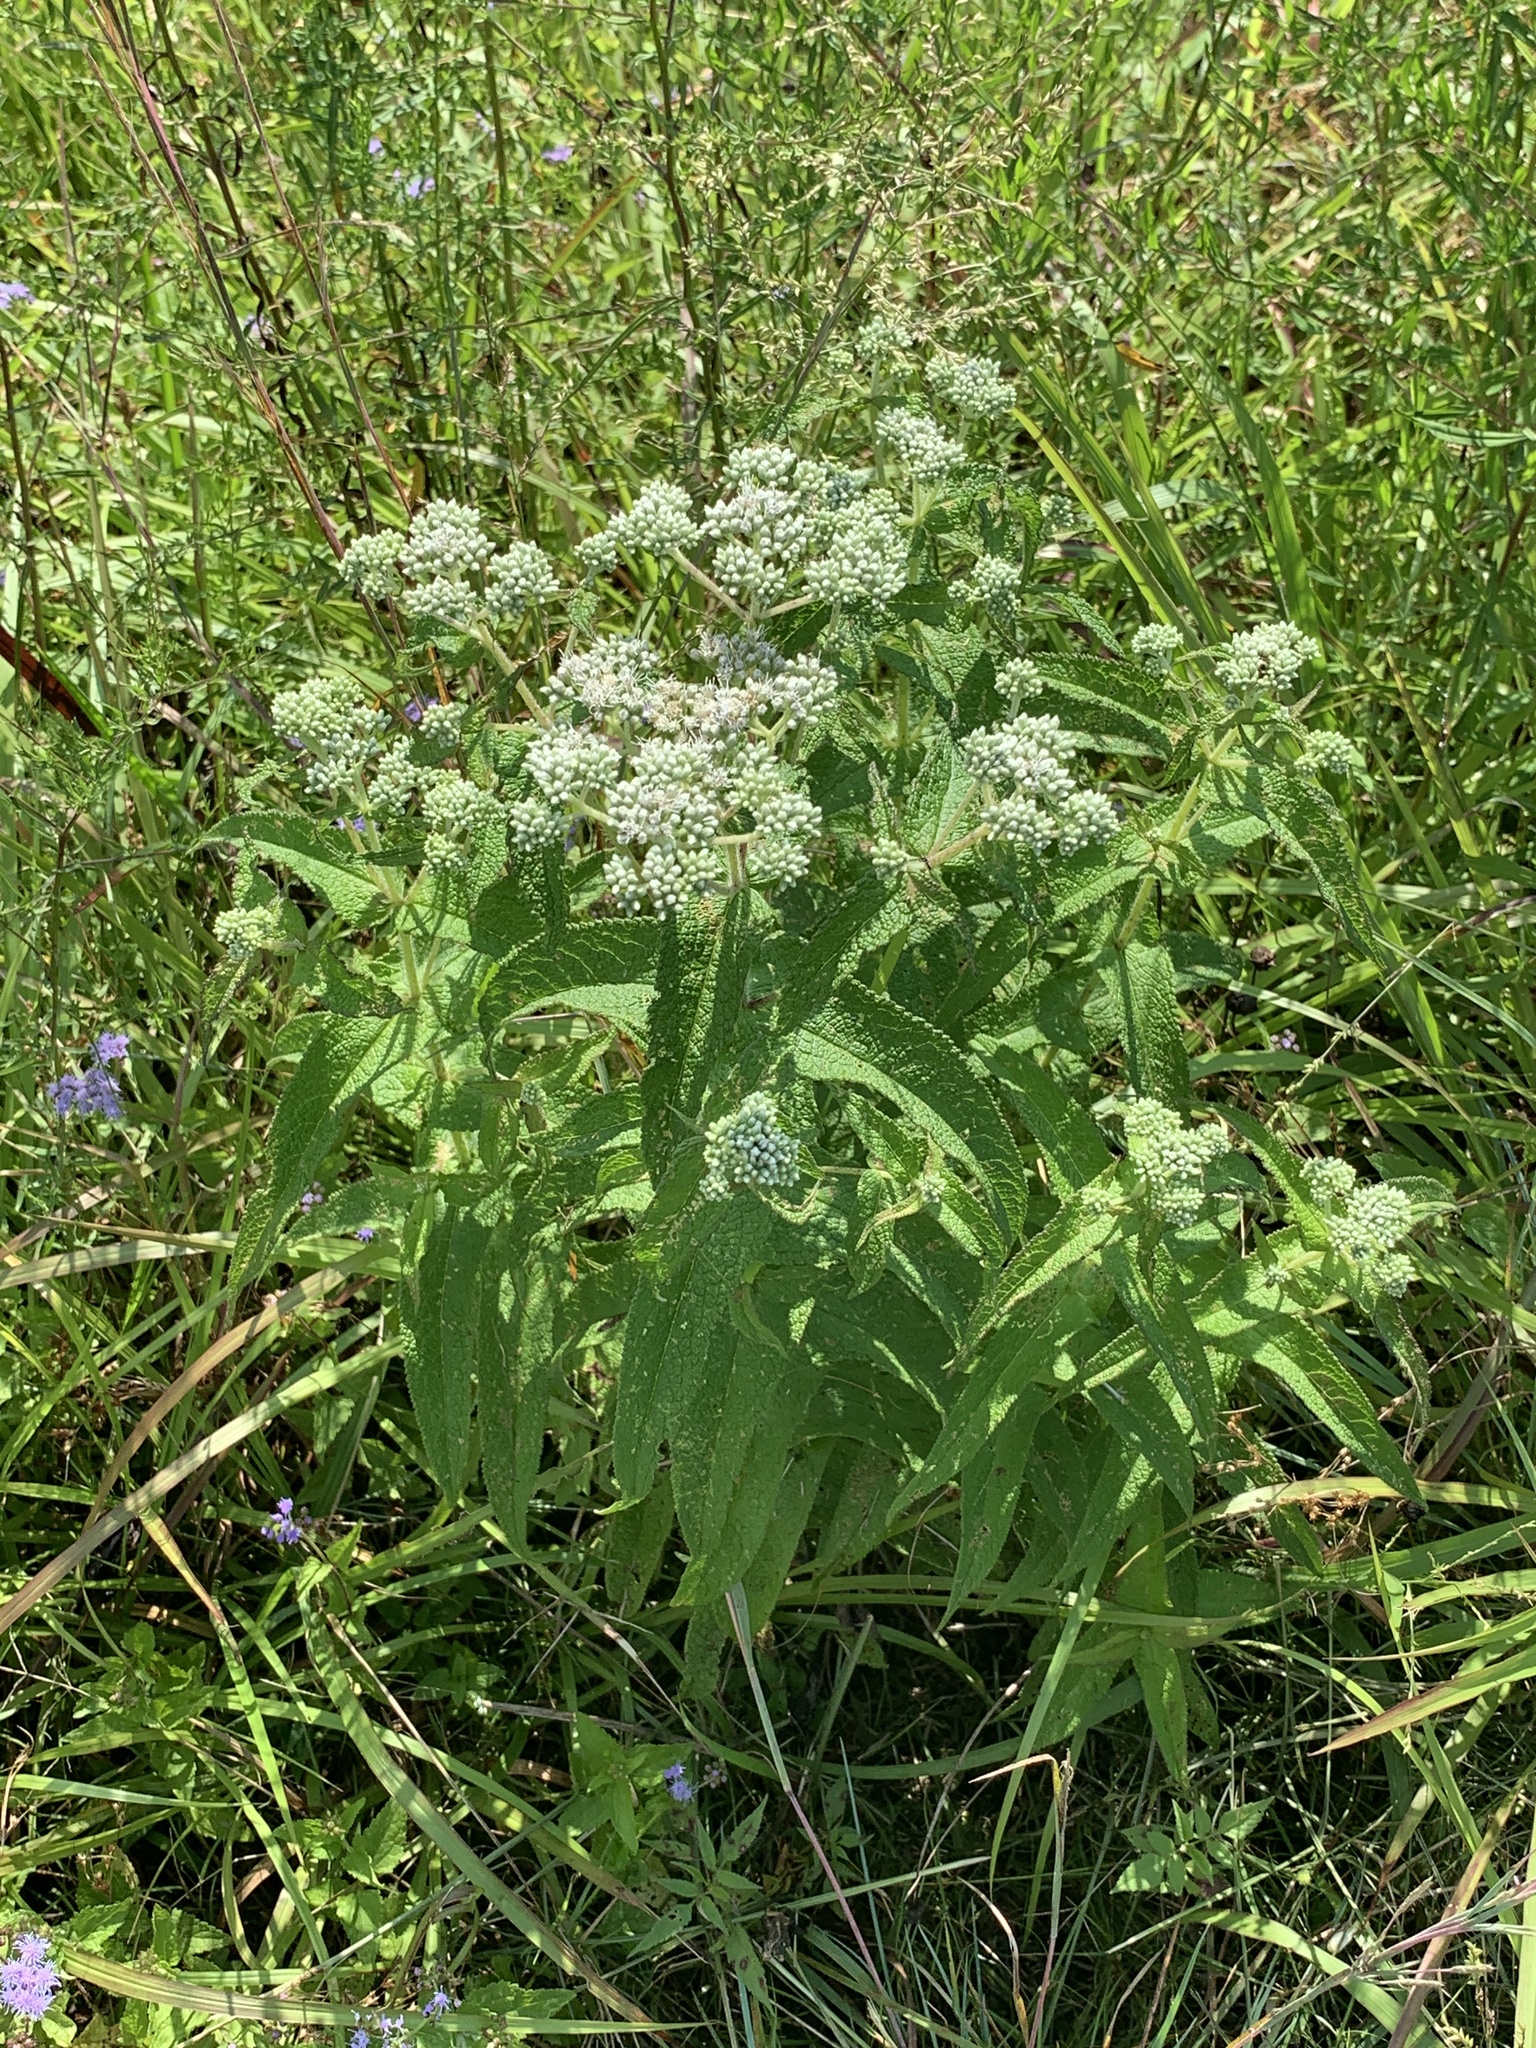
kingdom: Plantae
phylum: Tracheophyta
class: Magnoliopsida
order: Asterales
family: Asteraceae
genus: Eupatorium
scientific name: Eupatorium perfoliatum
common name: Boneset
